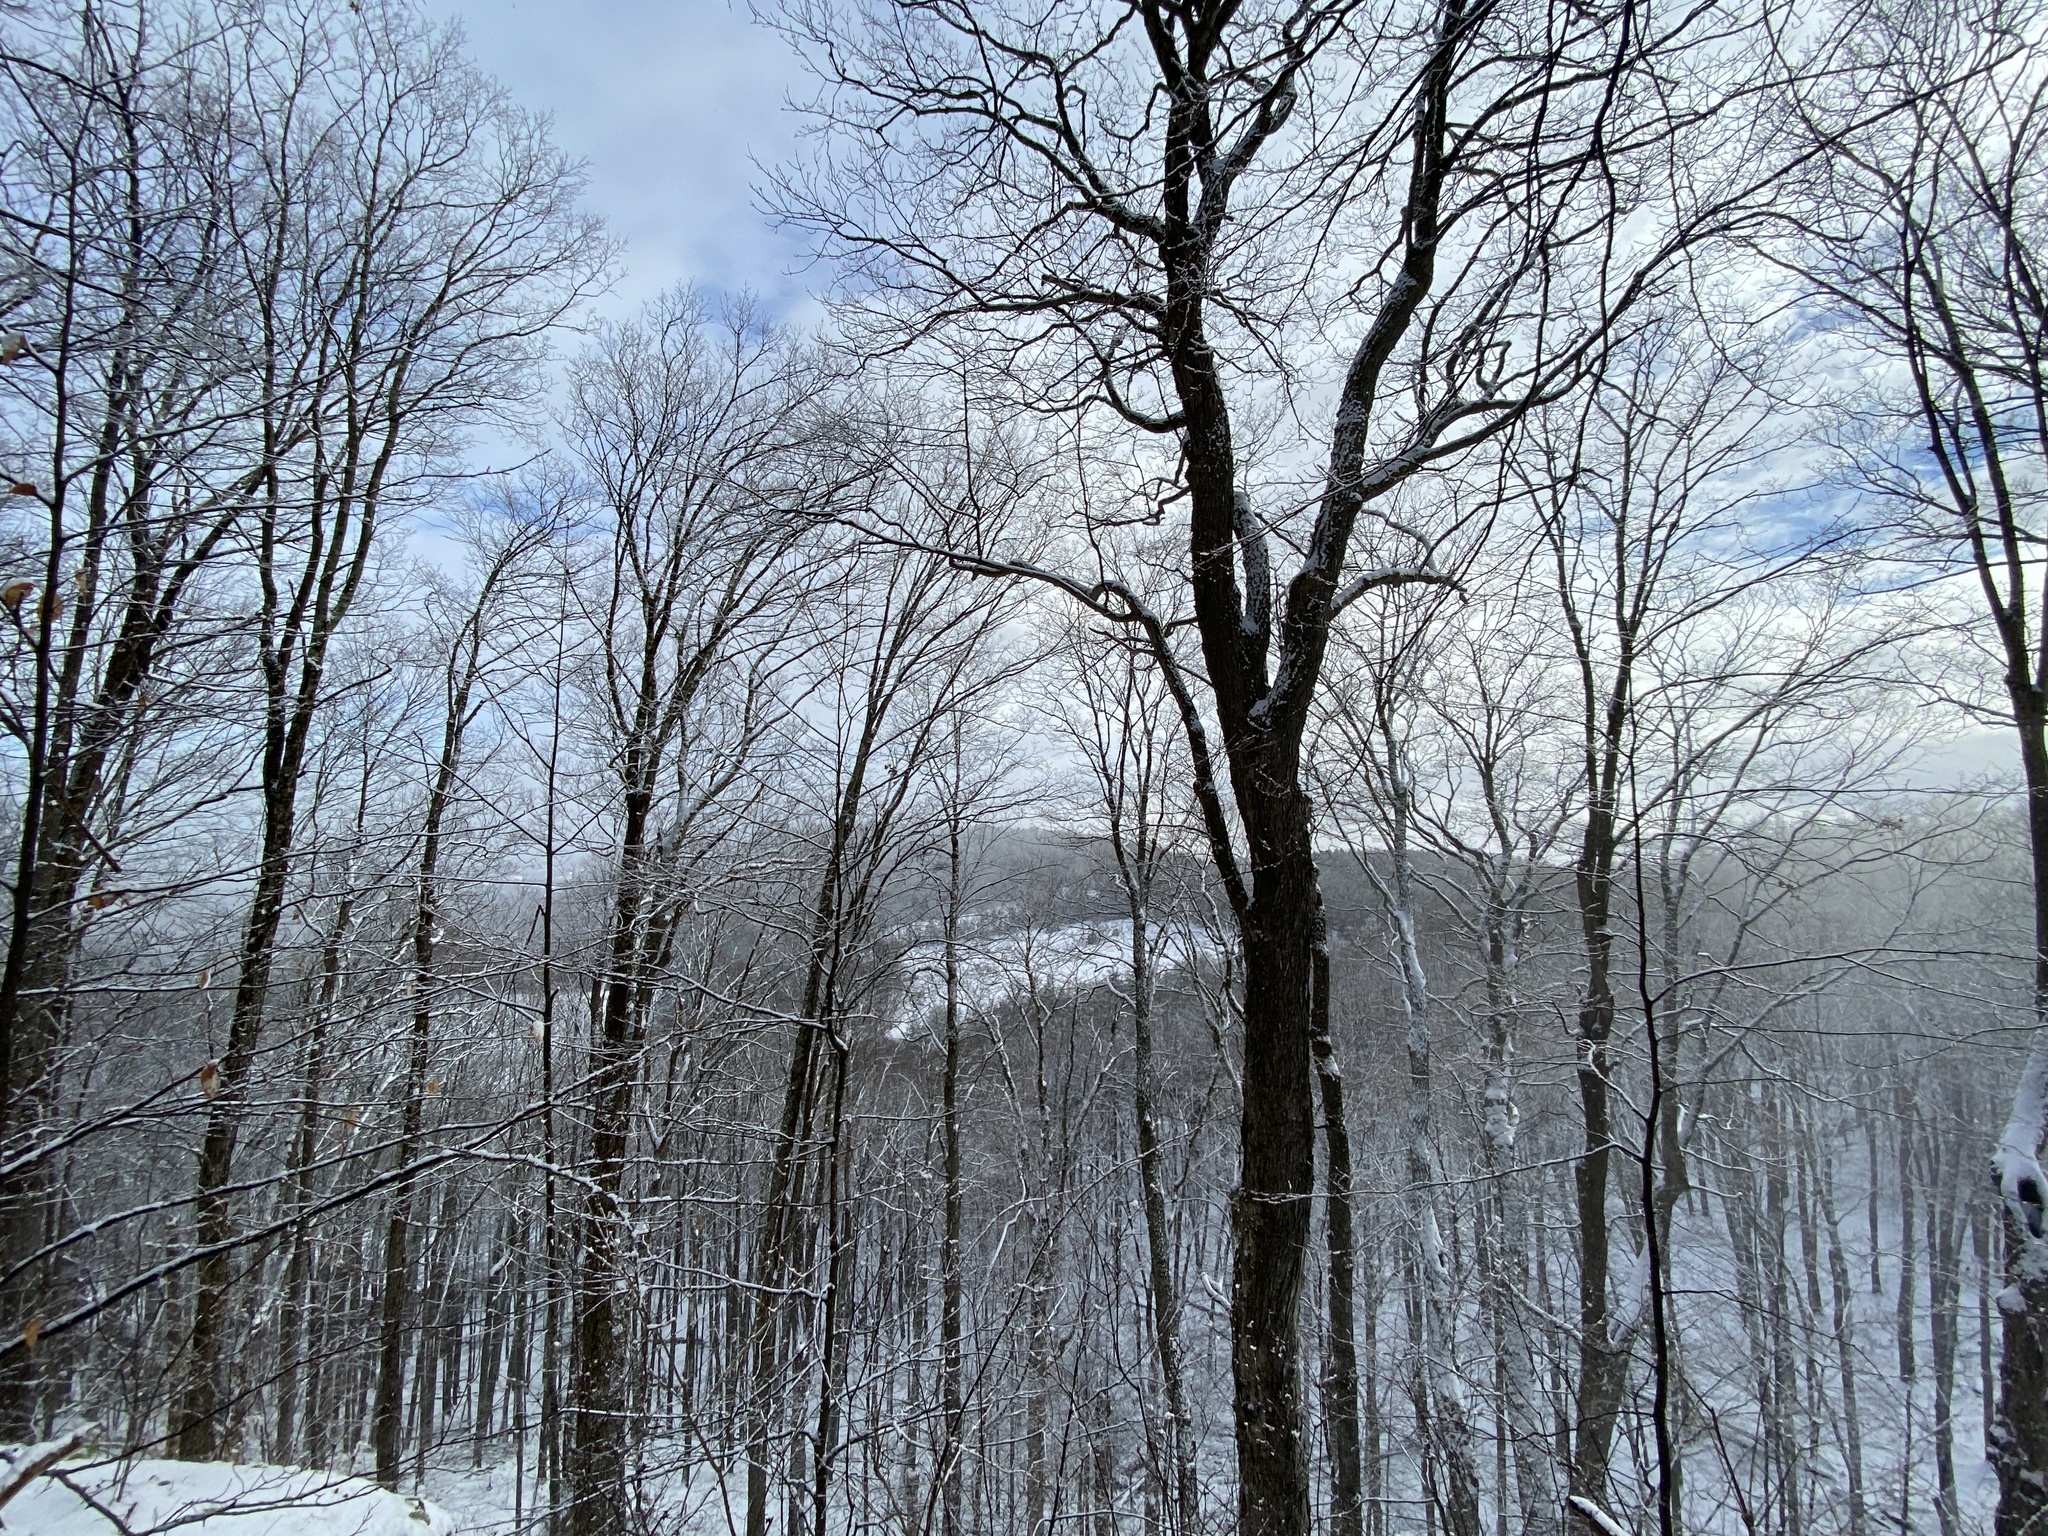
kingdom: Plantae
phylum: Tracheophyta
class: Magnoliopsida
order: Sapindales
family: Sapindaceae
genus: Acer
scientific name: Acer saccharum
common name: Sugar maple
